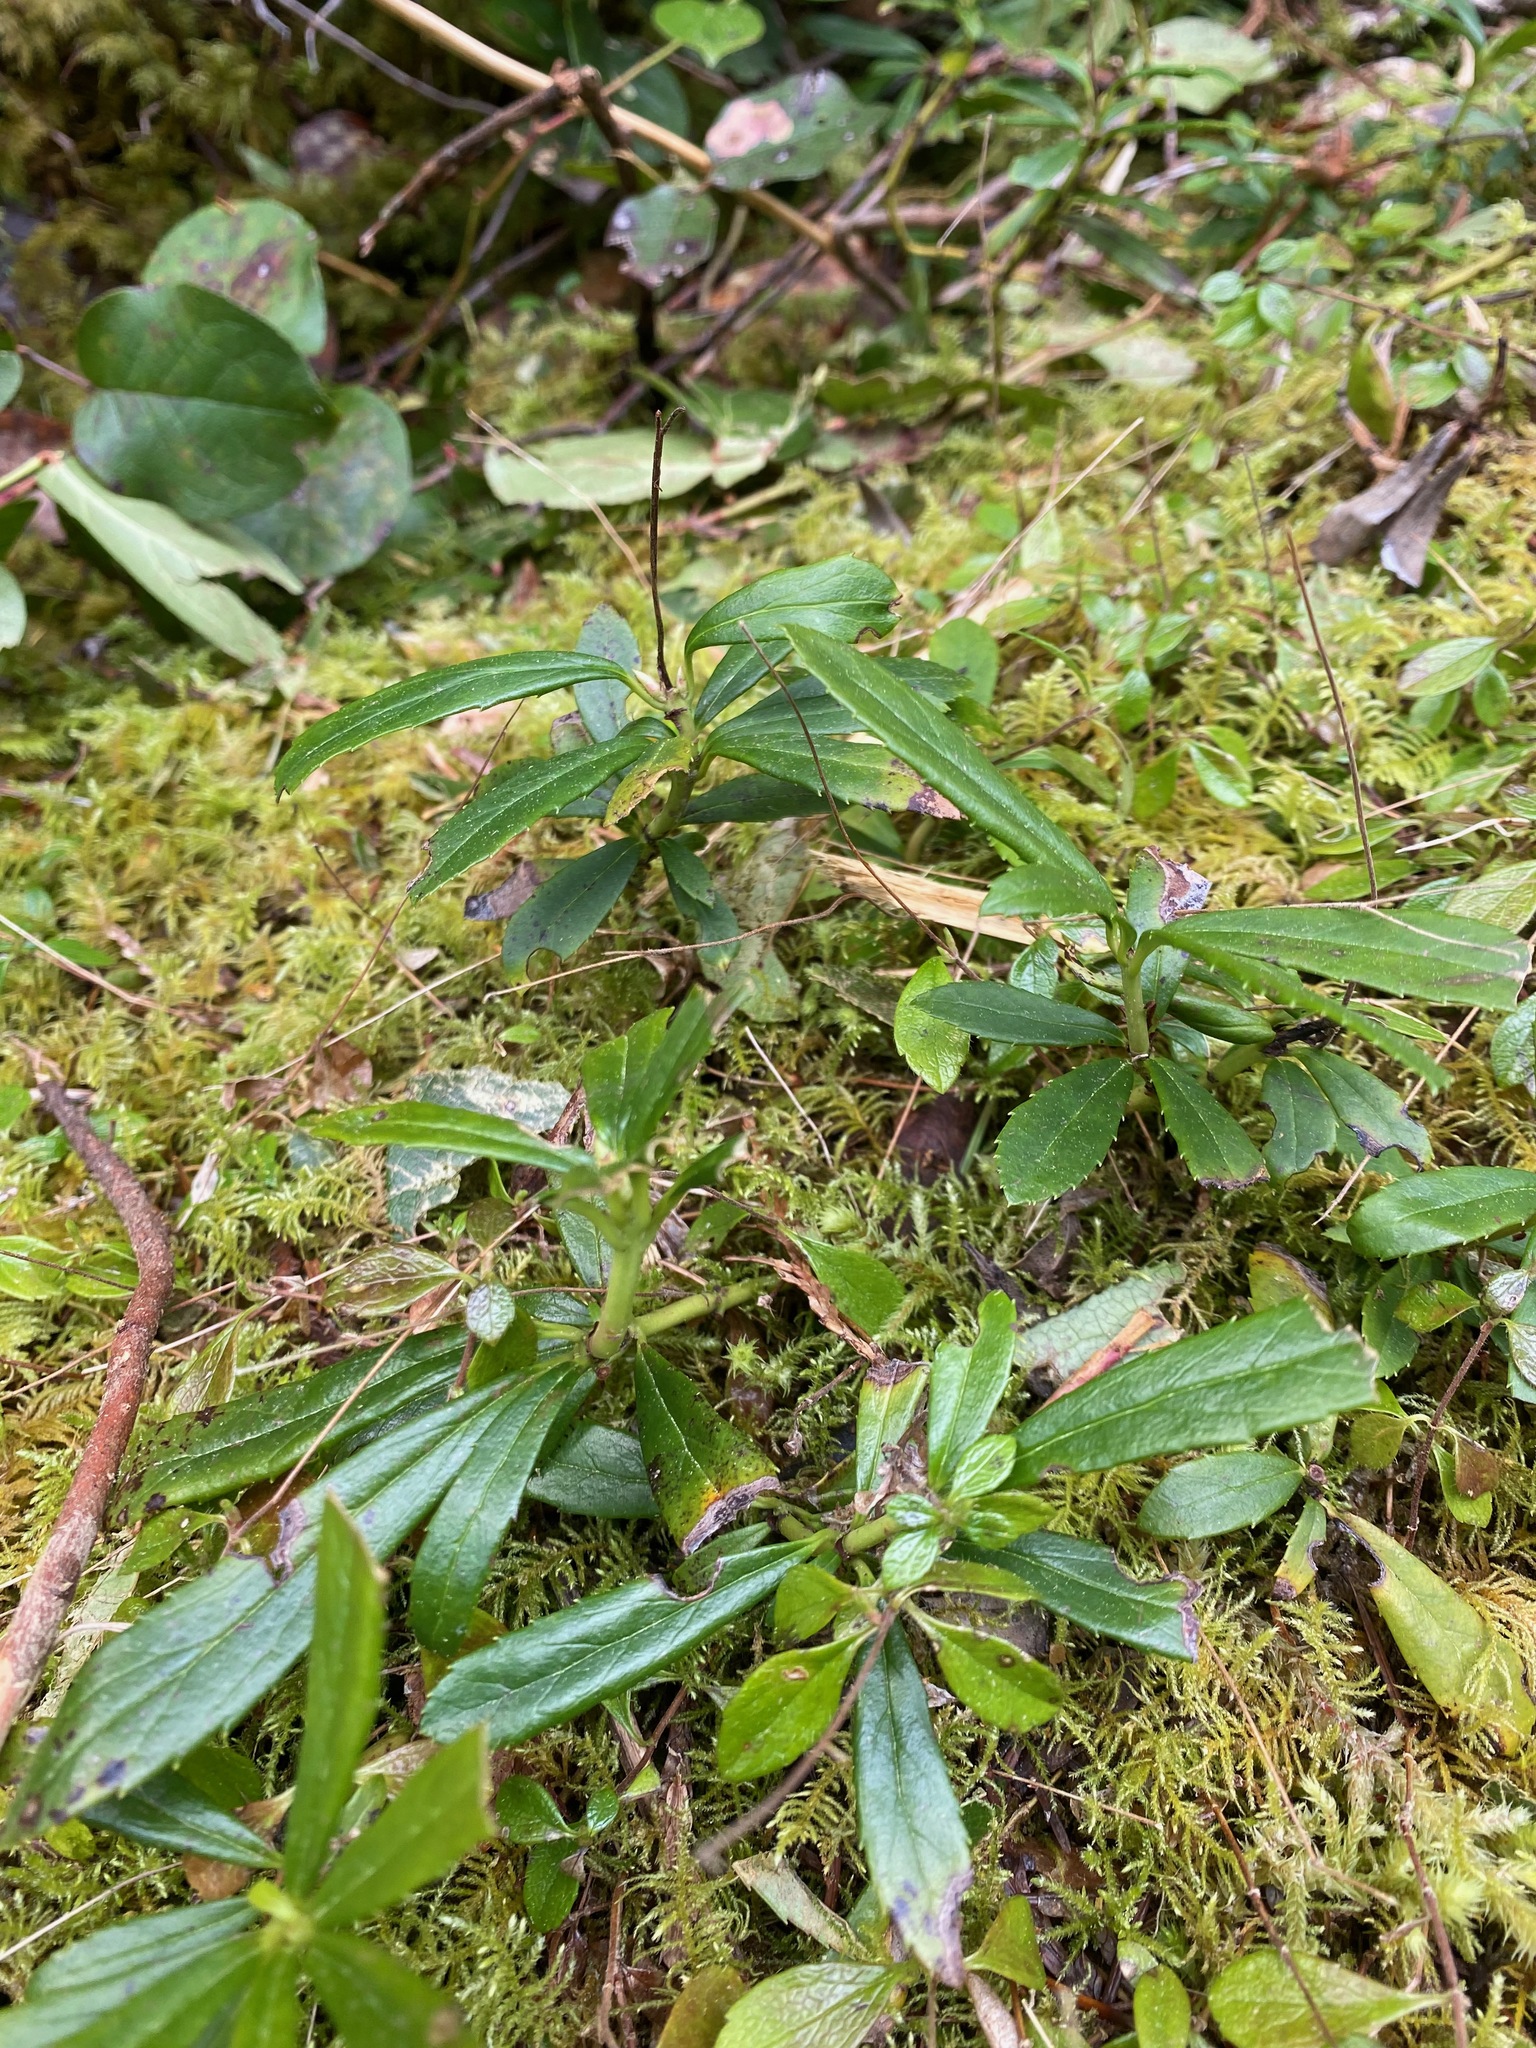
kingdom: Plantae
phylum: Tracheophyta
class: Magnoliopsida
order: Ericales
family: Ericaceae
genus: Chimaphila
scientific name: Chimaphila umbellata
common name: Pipsissewa
